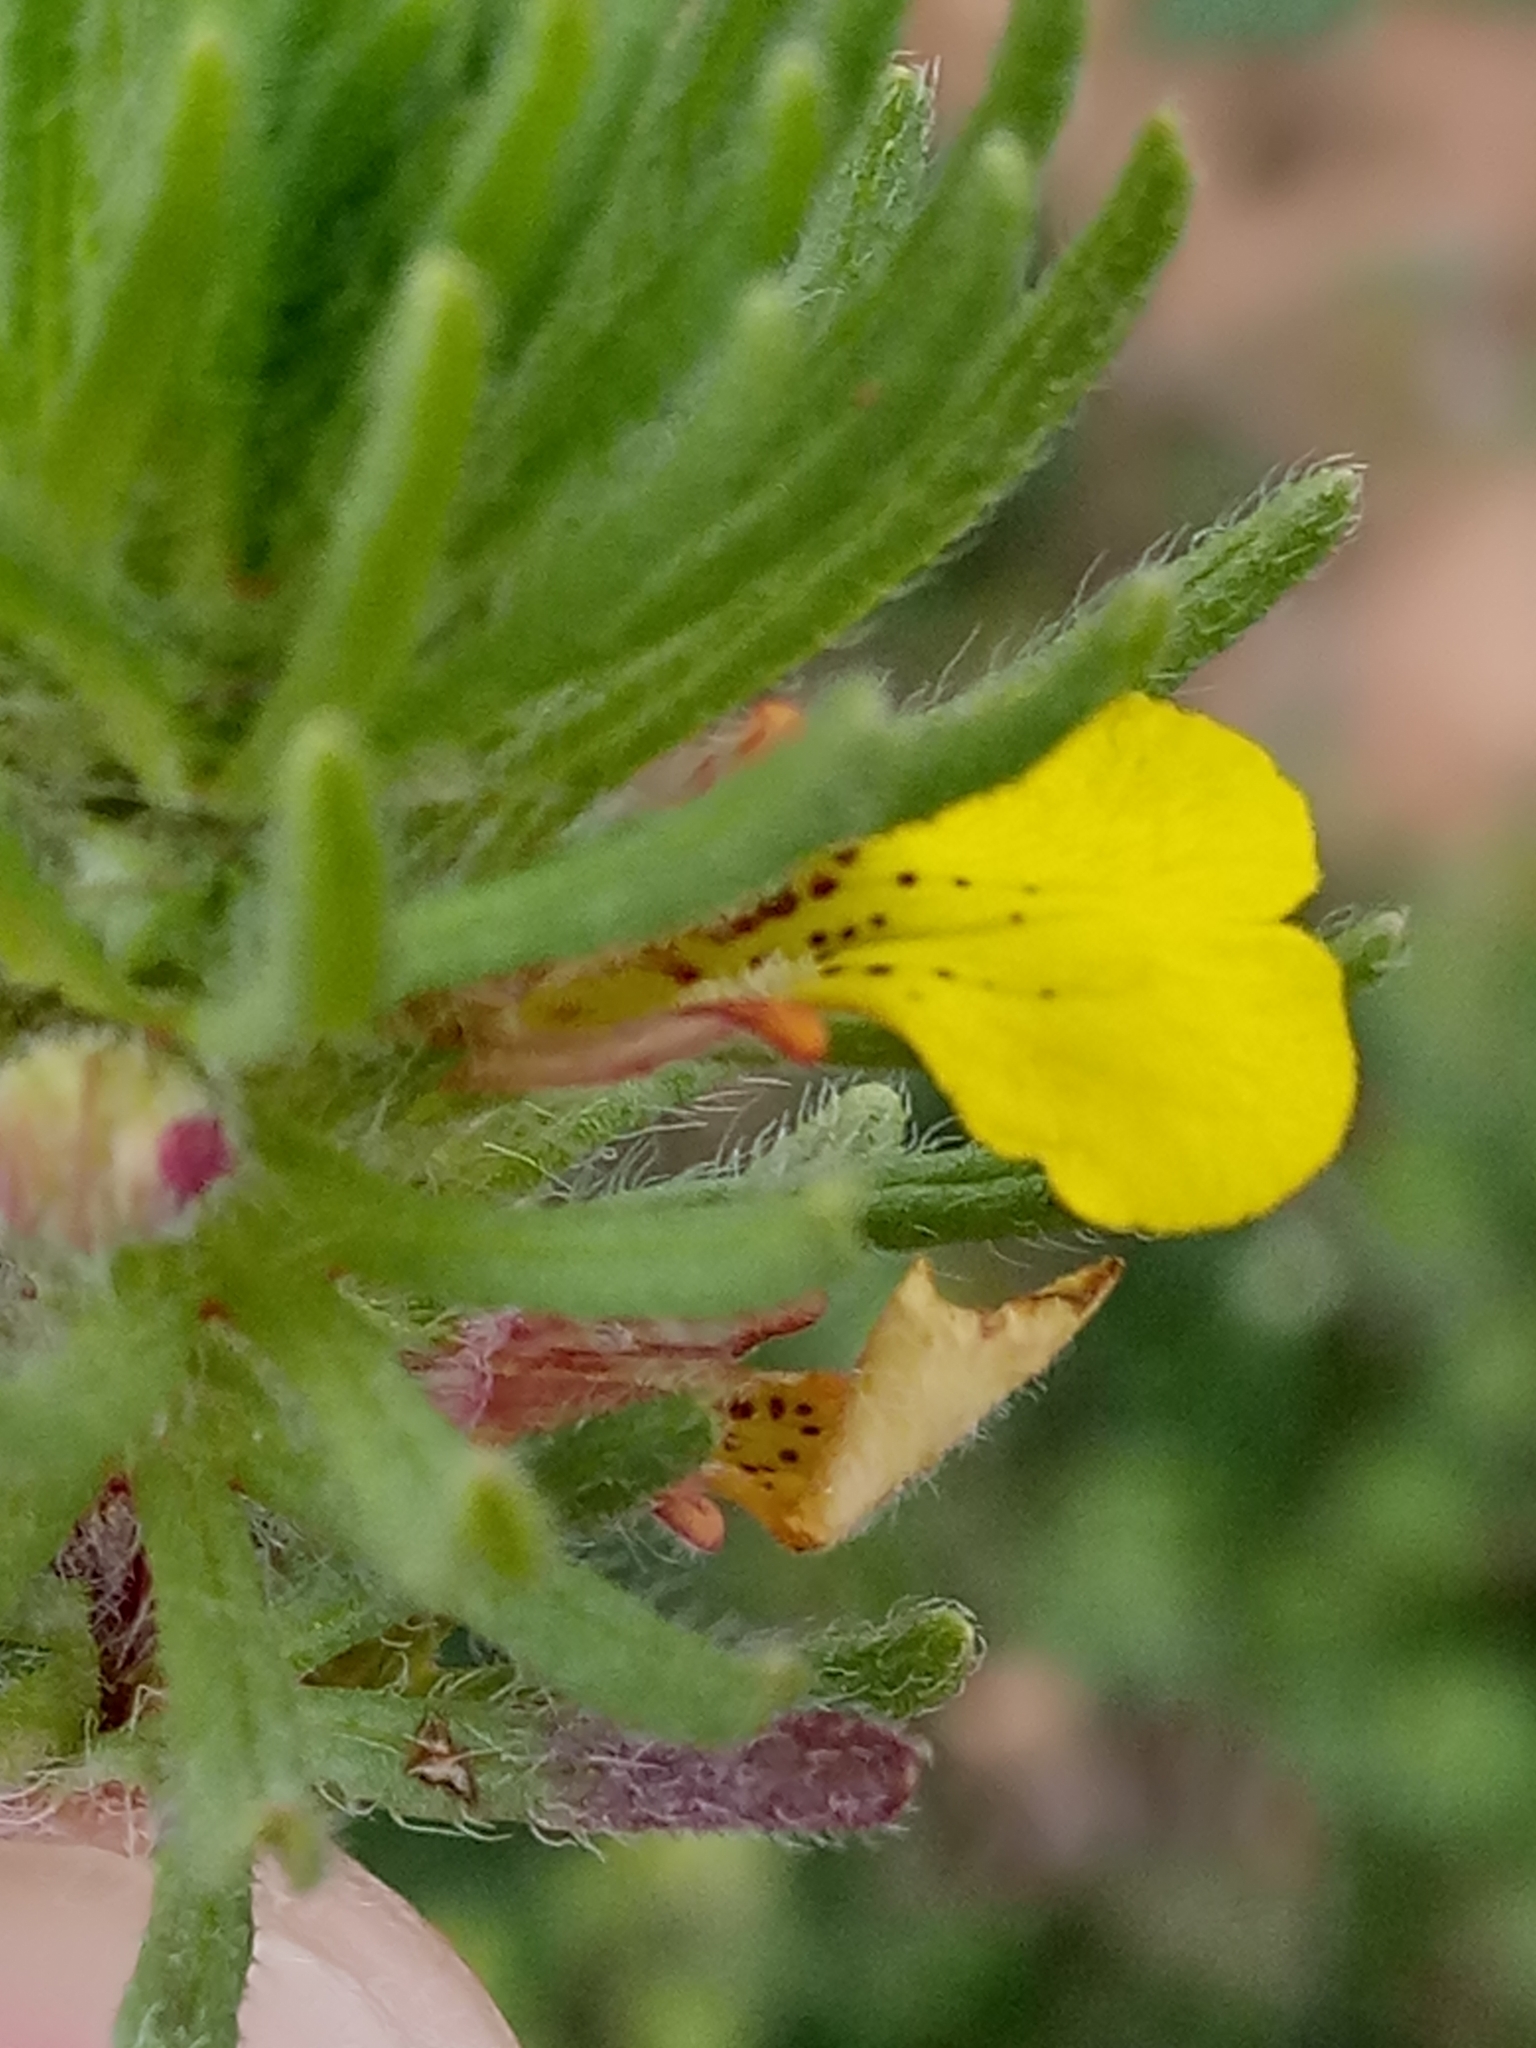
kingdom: Plantae
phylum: Tracheophyta
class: Magnoliopsida
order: Lamiales
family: Lamiaceae
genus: Ajuga
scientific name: Ajuga chamaepitys
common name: Ground-pine
